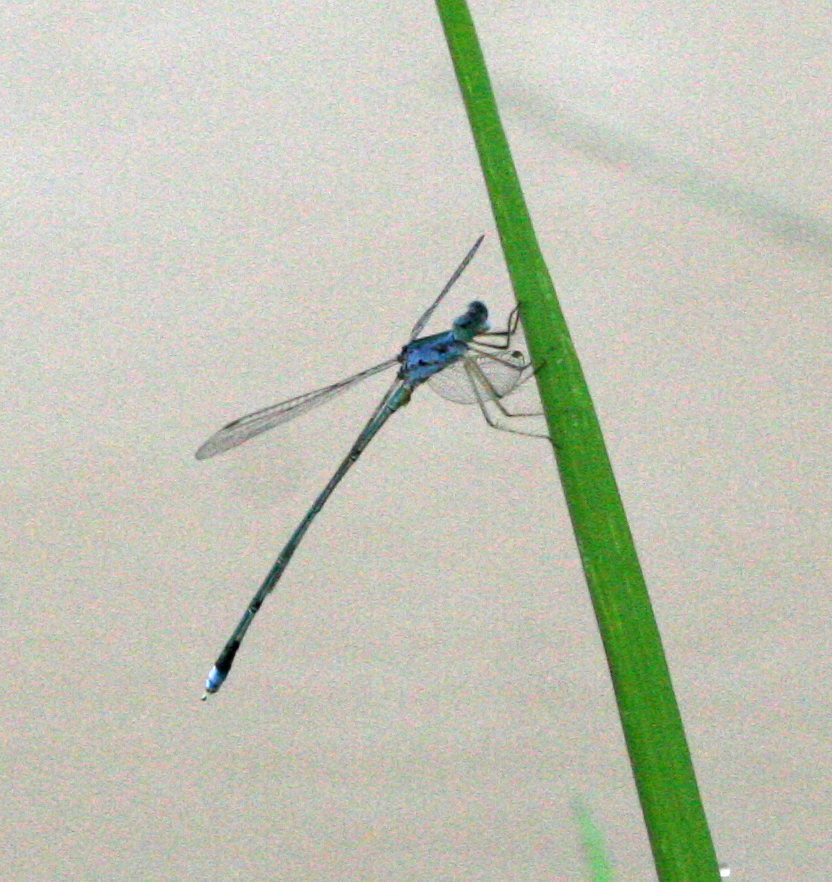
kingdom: Animalia
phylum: Arthropoda
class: Insecta
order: Odonata
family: Lestidae
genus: Lestes
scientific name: Lestes elatus
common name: Emerald spreadwing
